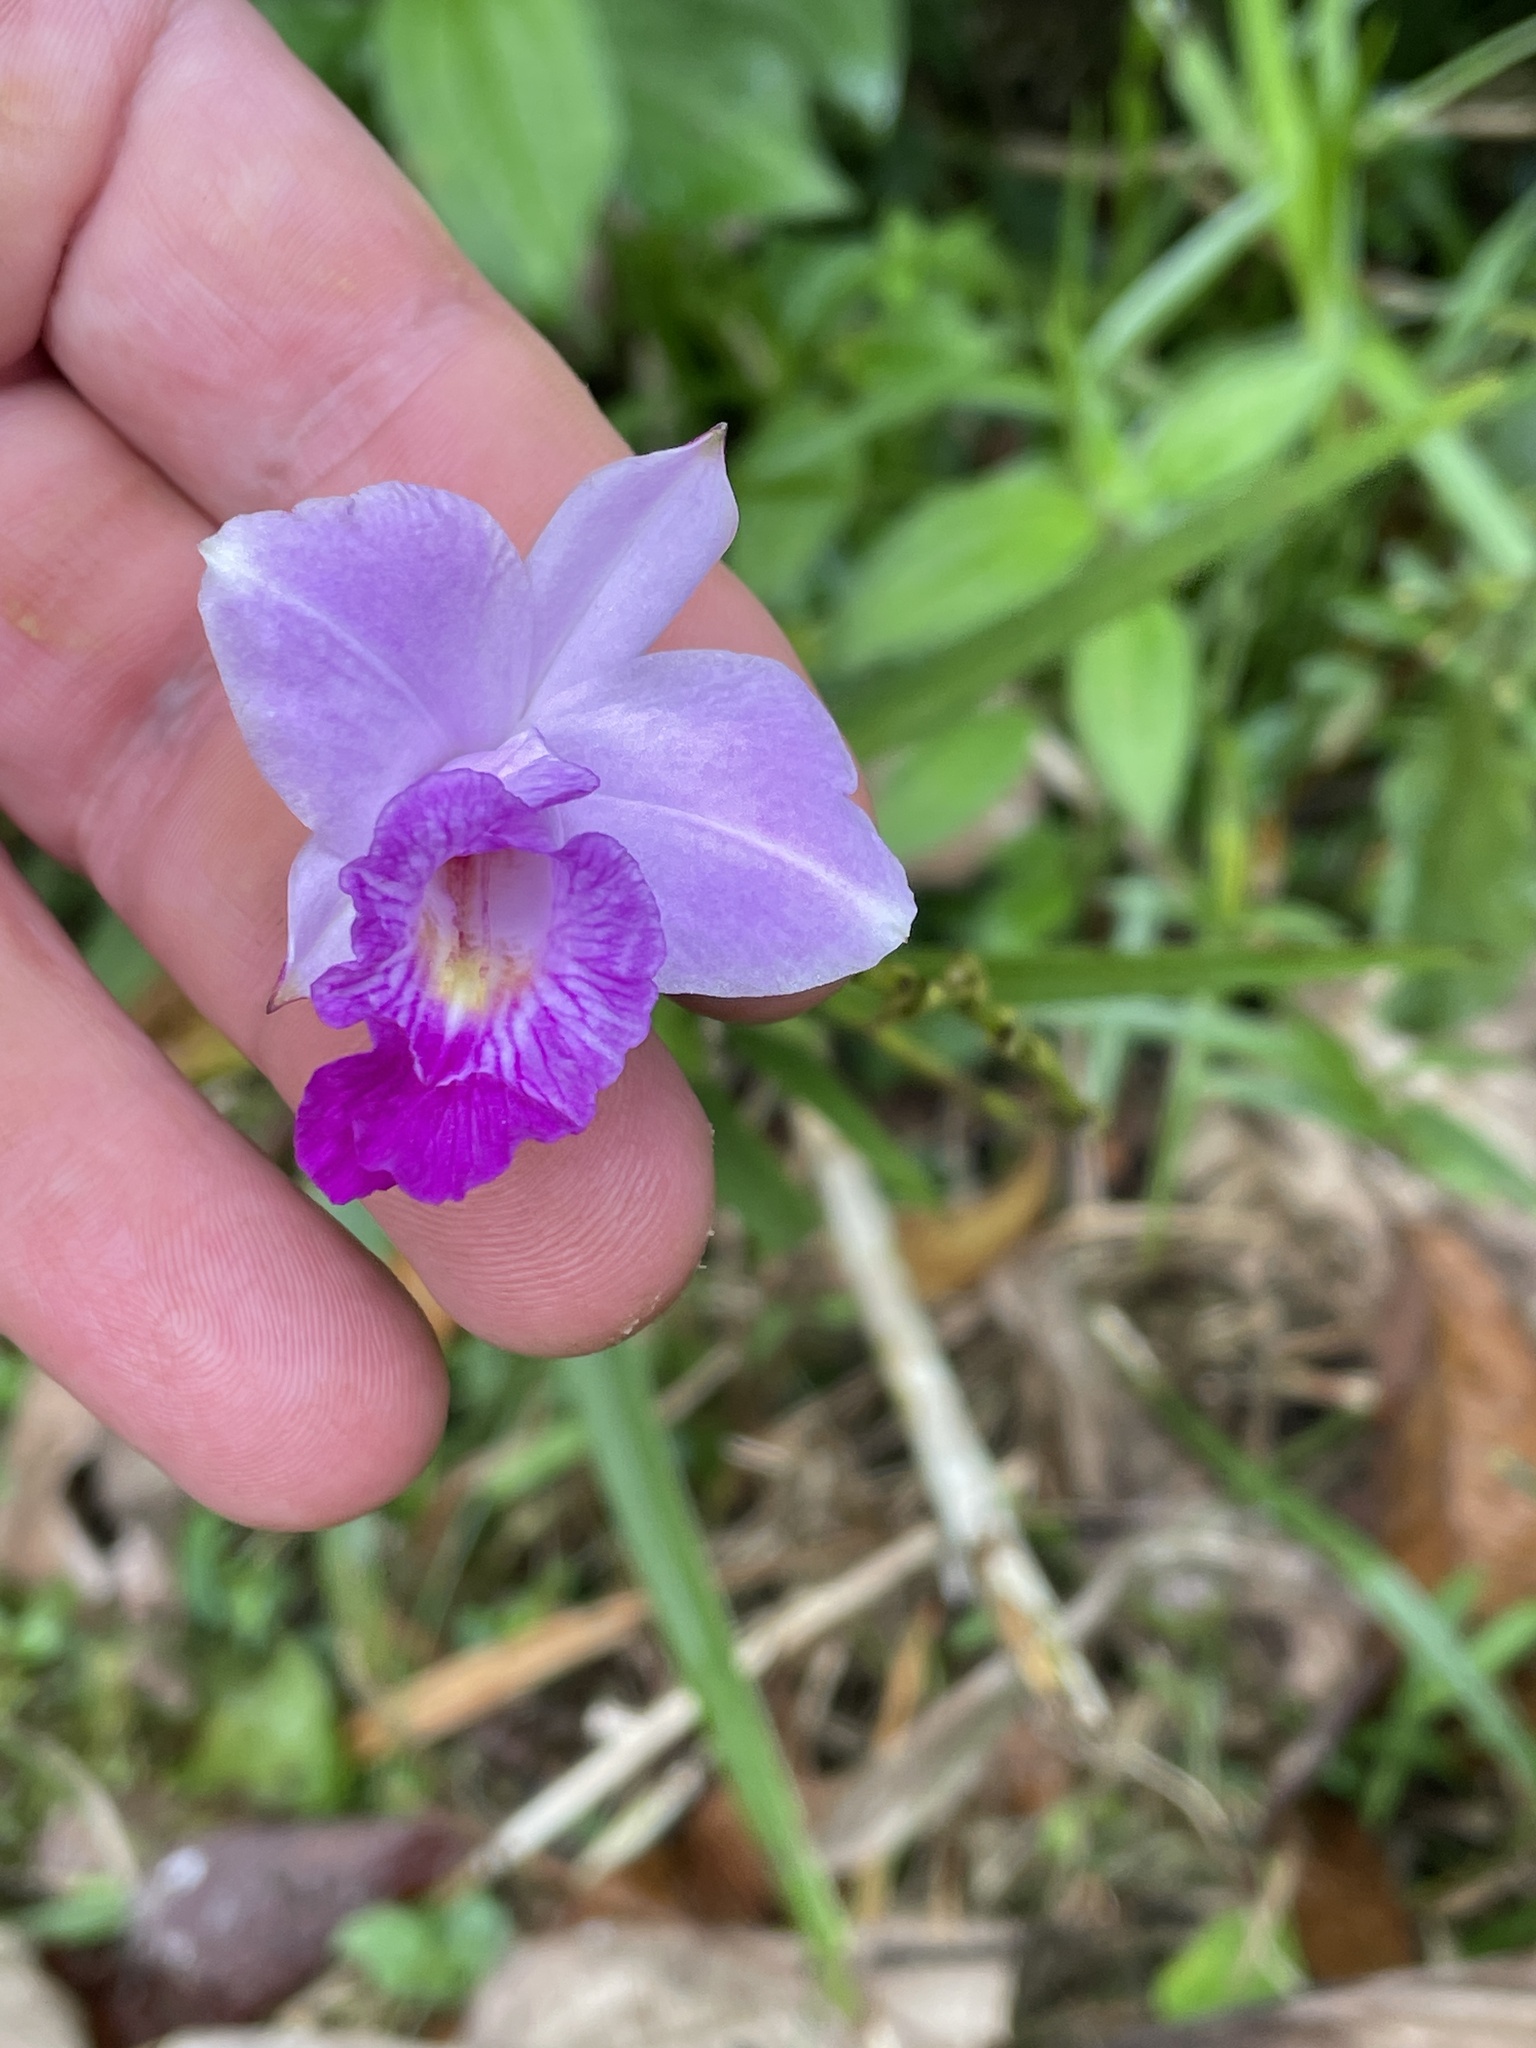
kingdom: Plantae
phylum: Tracheophyta
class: Liliopsida
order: Asparagales
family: Orchidaceae
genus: Arundina
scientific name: Arundina graminifolia
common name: Bamboo orchid
